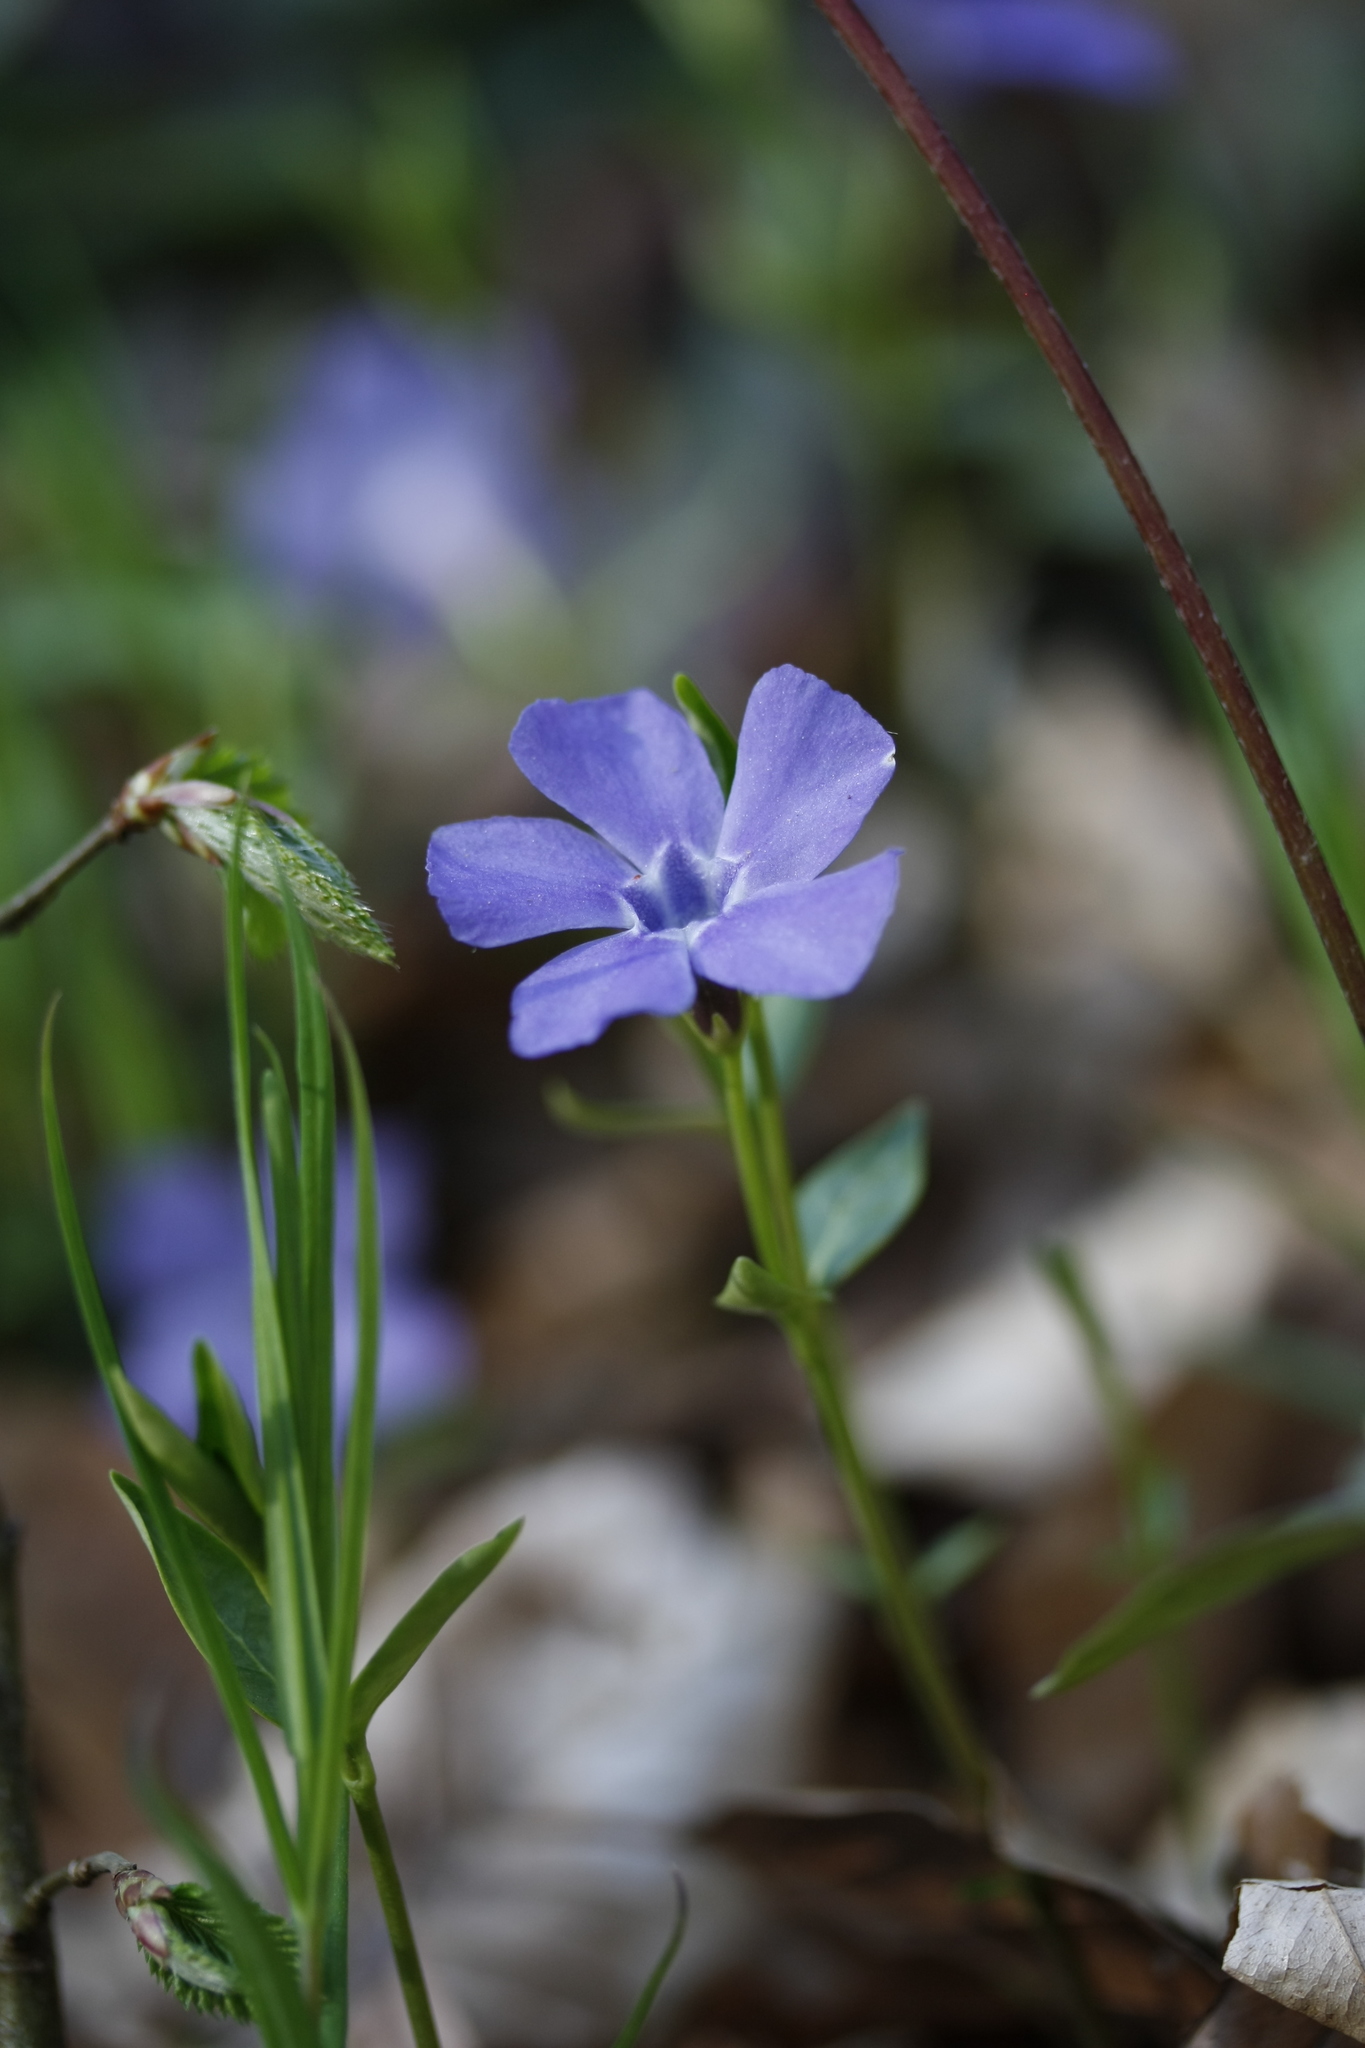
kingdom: Plantae
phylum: Tracheophyta
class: Magnoliopsida
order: Gentianales
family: Apocynaceae
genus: Vinca
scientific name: Vinca minor
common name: Lesser periwinkle
